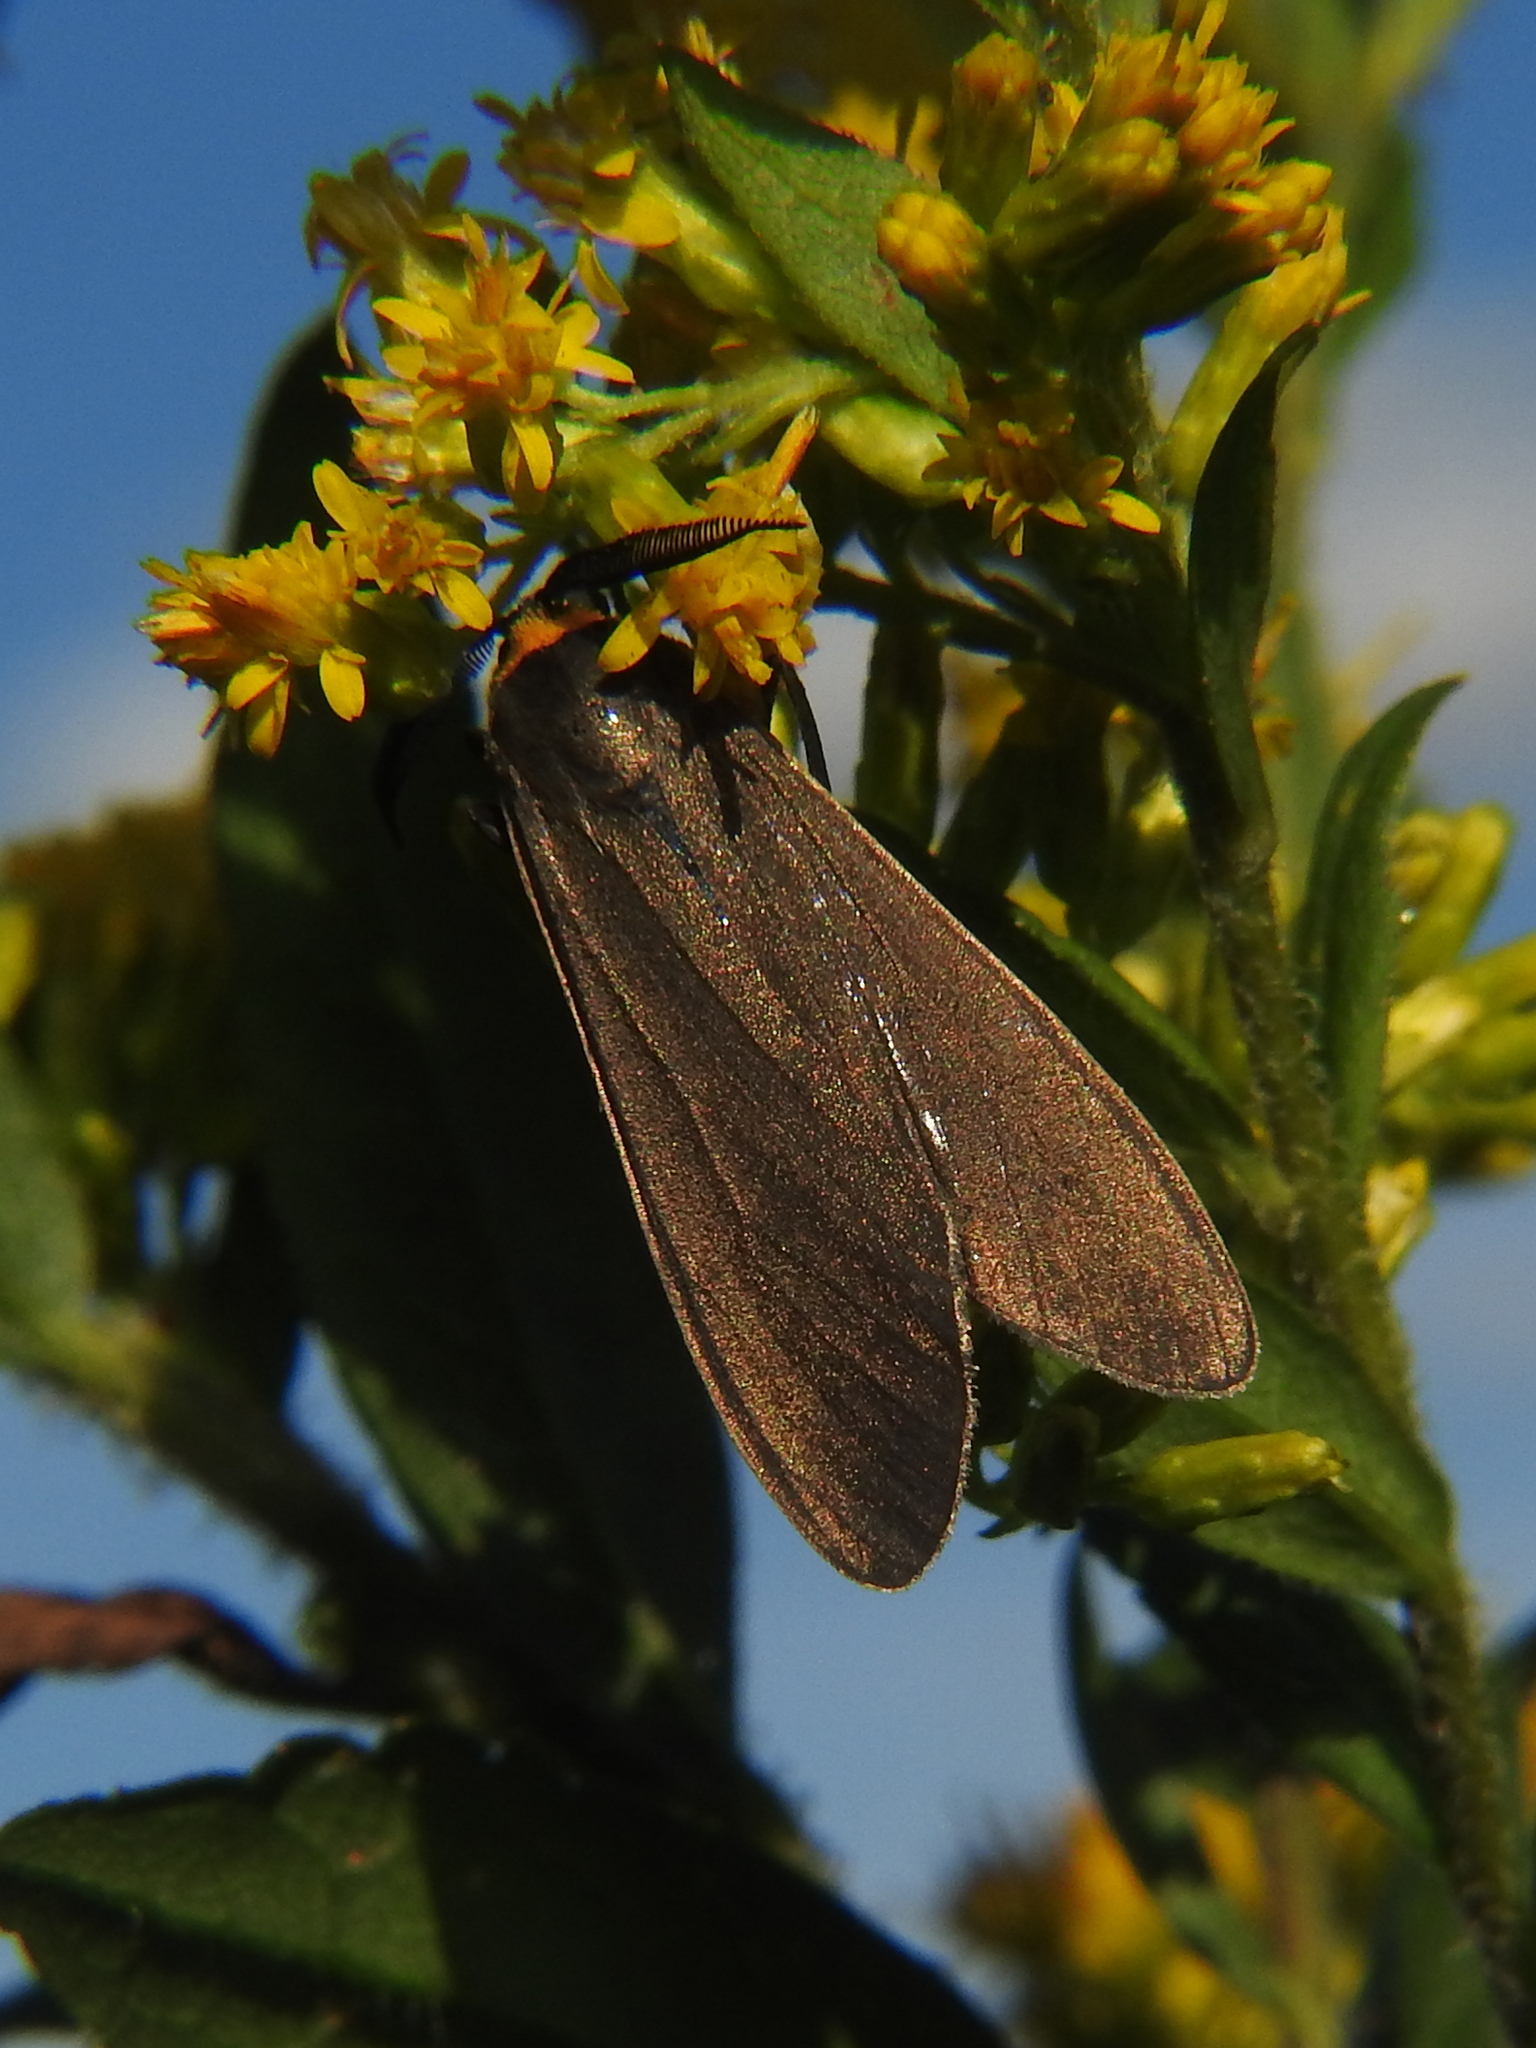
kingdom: Animalia
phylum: Arthropoda
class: Insecta
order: Lepidoptera
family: Erebidae
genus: Cisseps
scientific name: Cisseps fulvicollis
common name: Yellow-collared scape moth
